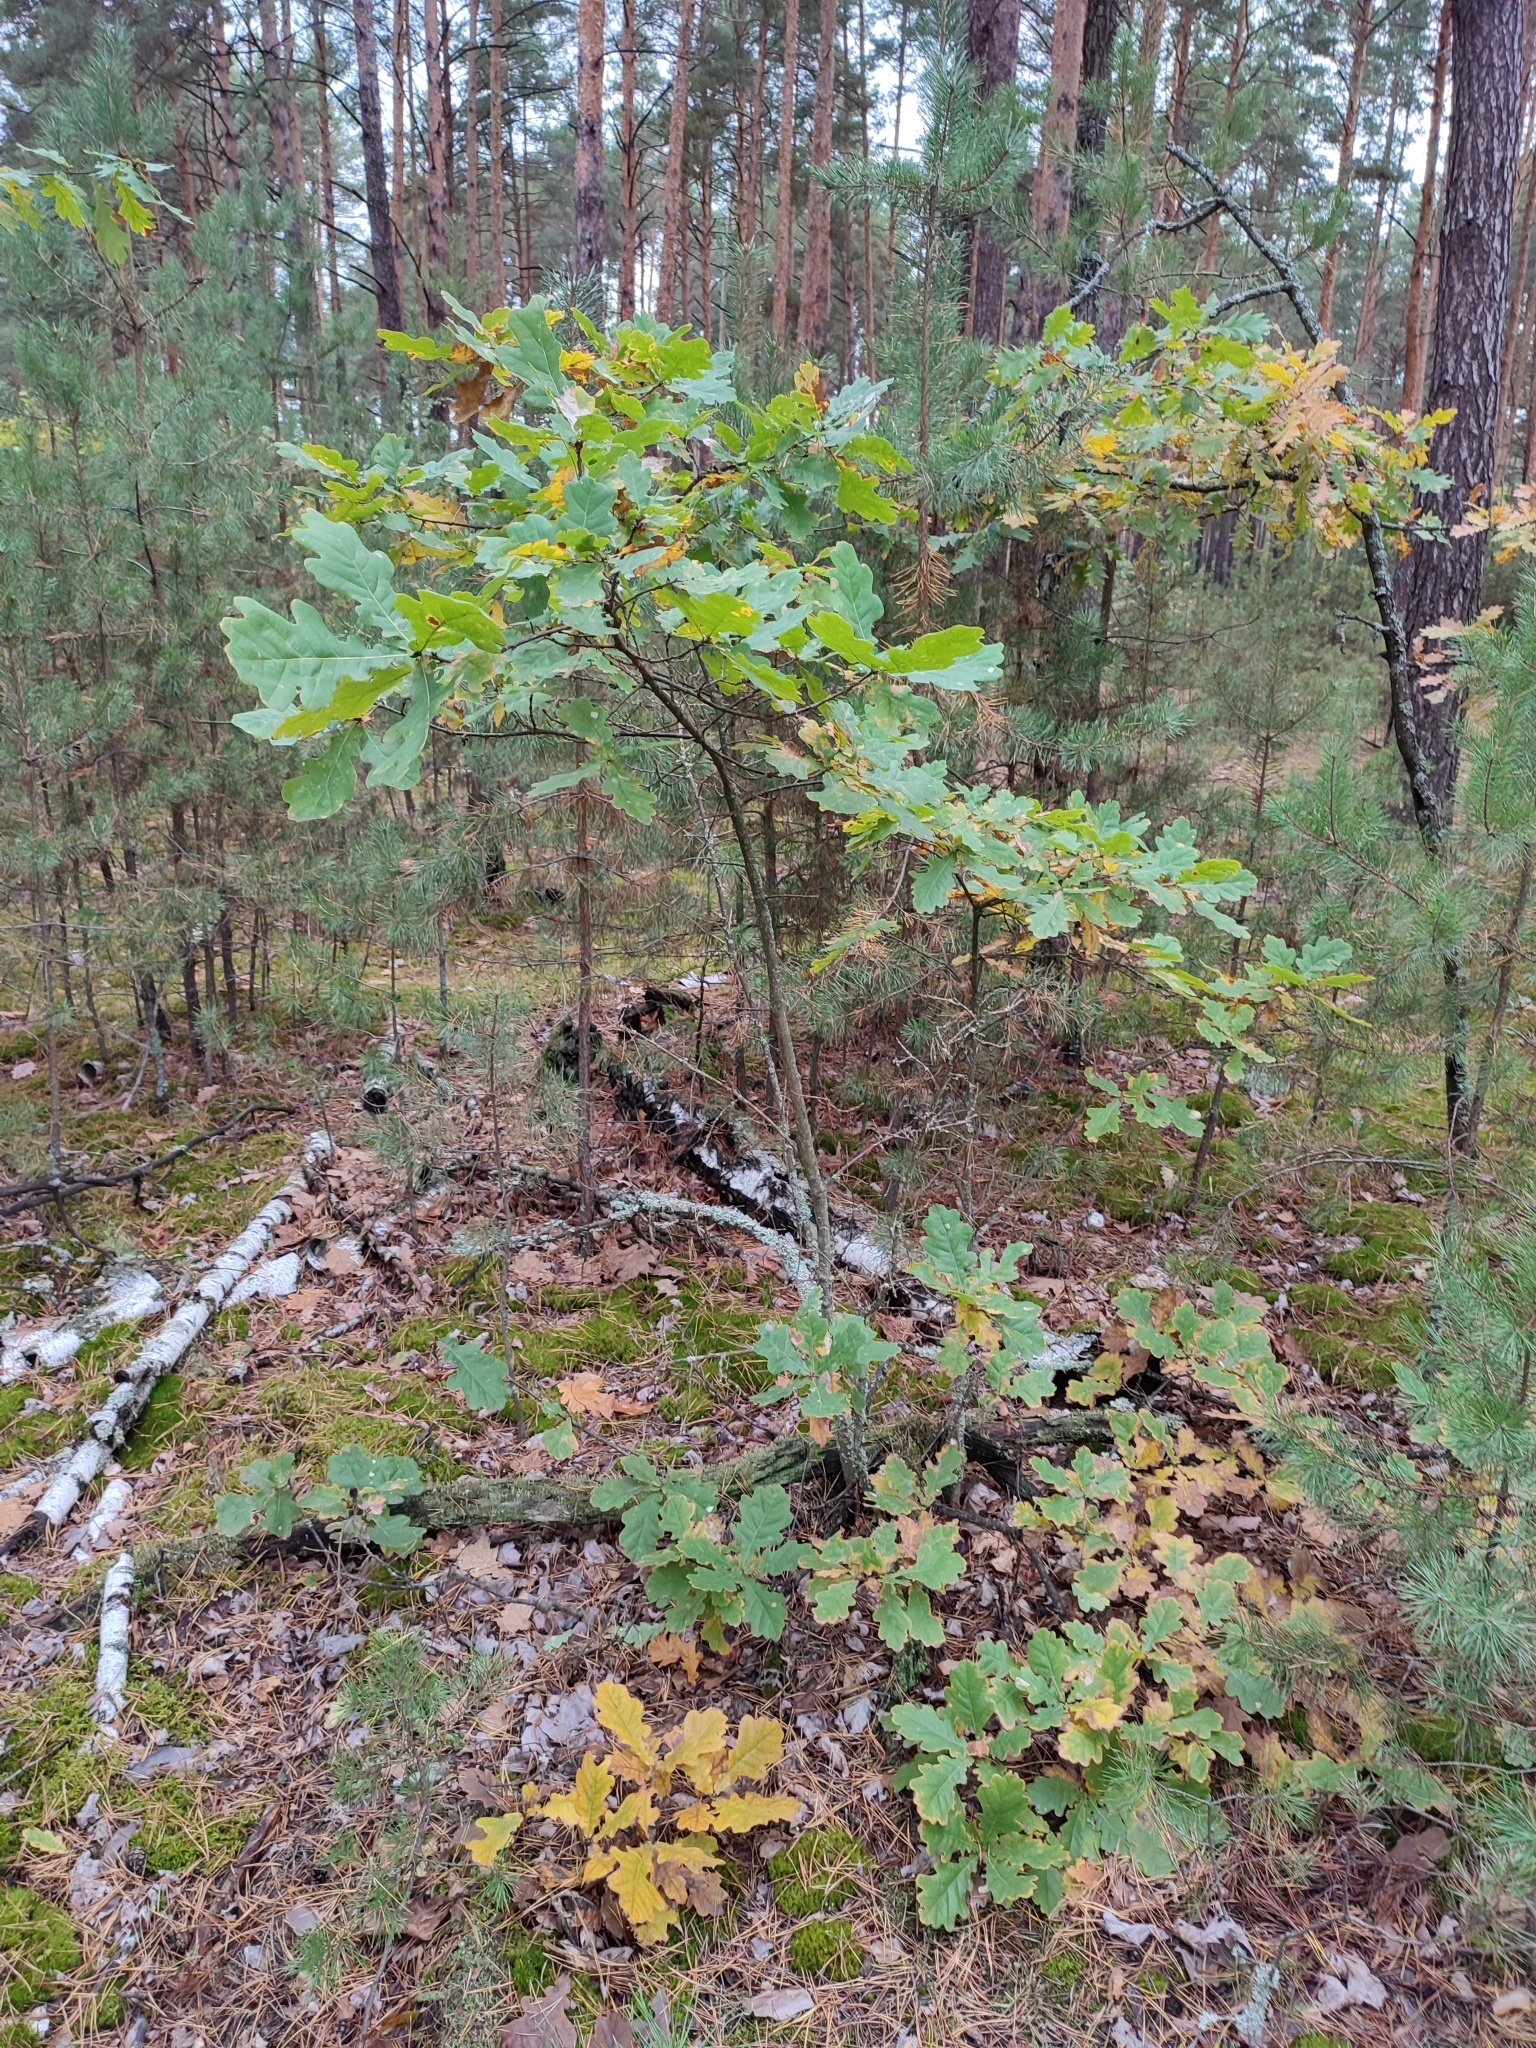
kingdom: Plantae
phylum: Tracheophyta
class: Magnoliopsida
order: Fagales
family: Fagaceae
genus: Quercus
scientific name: Quercus robur
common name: Pedunculate oak
